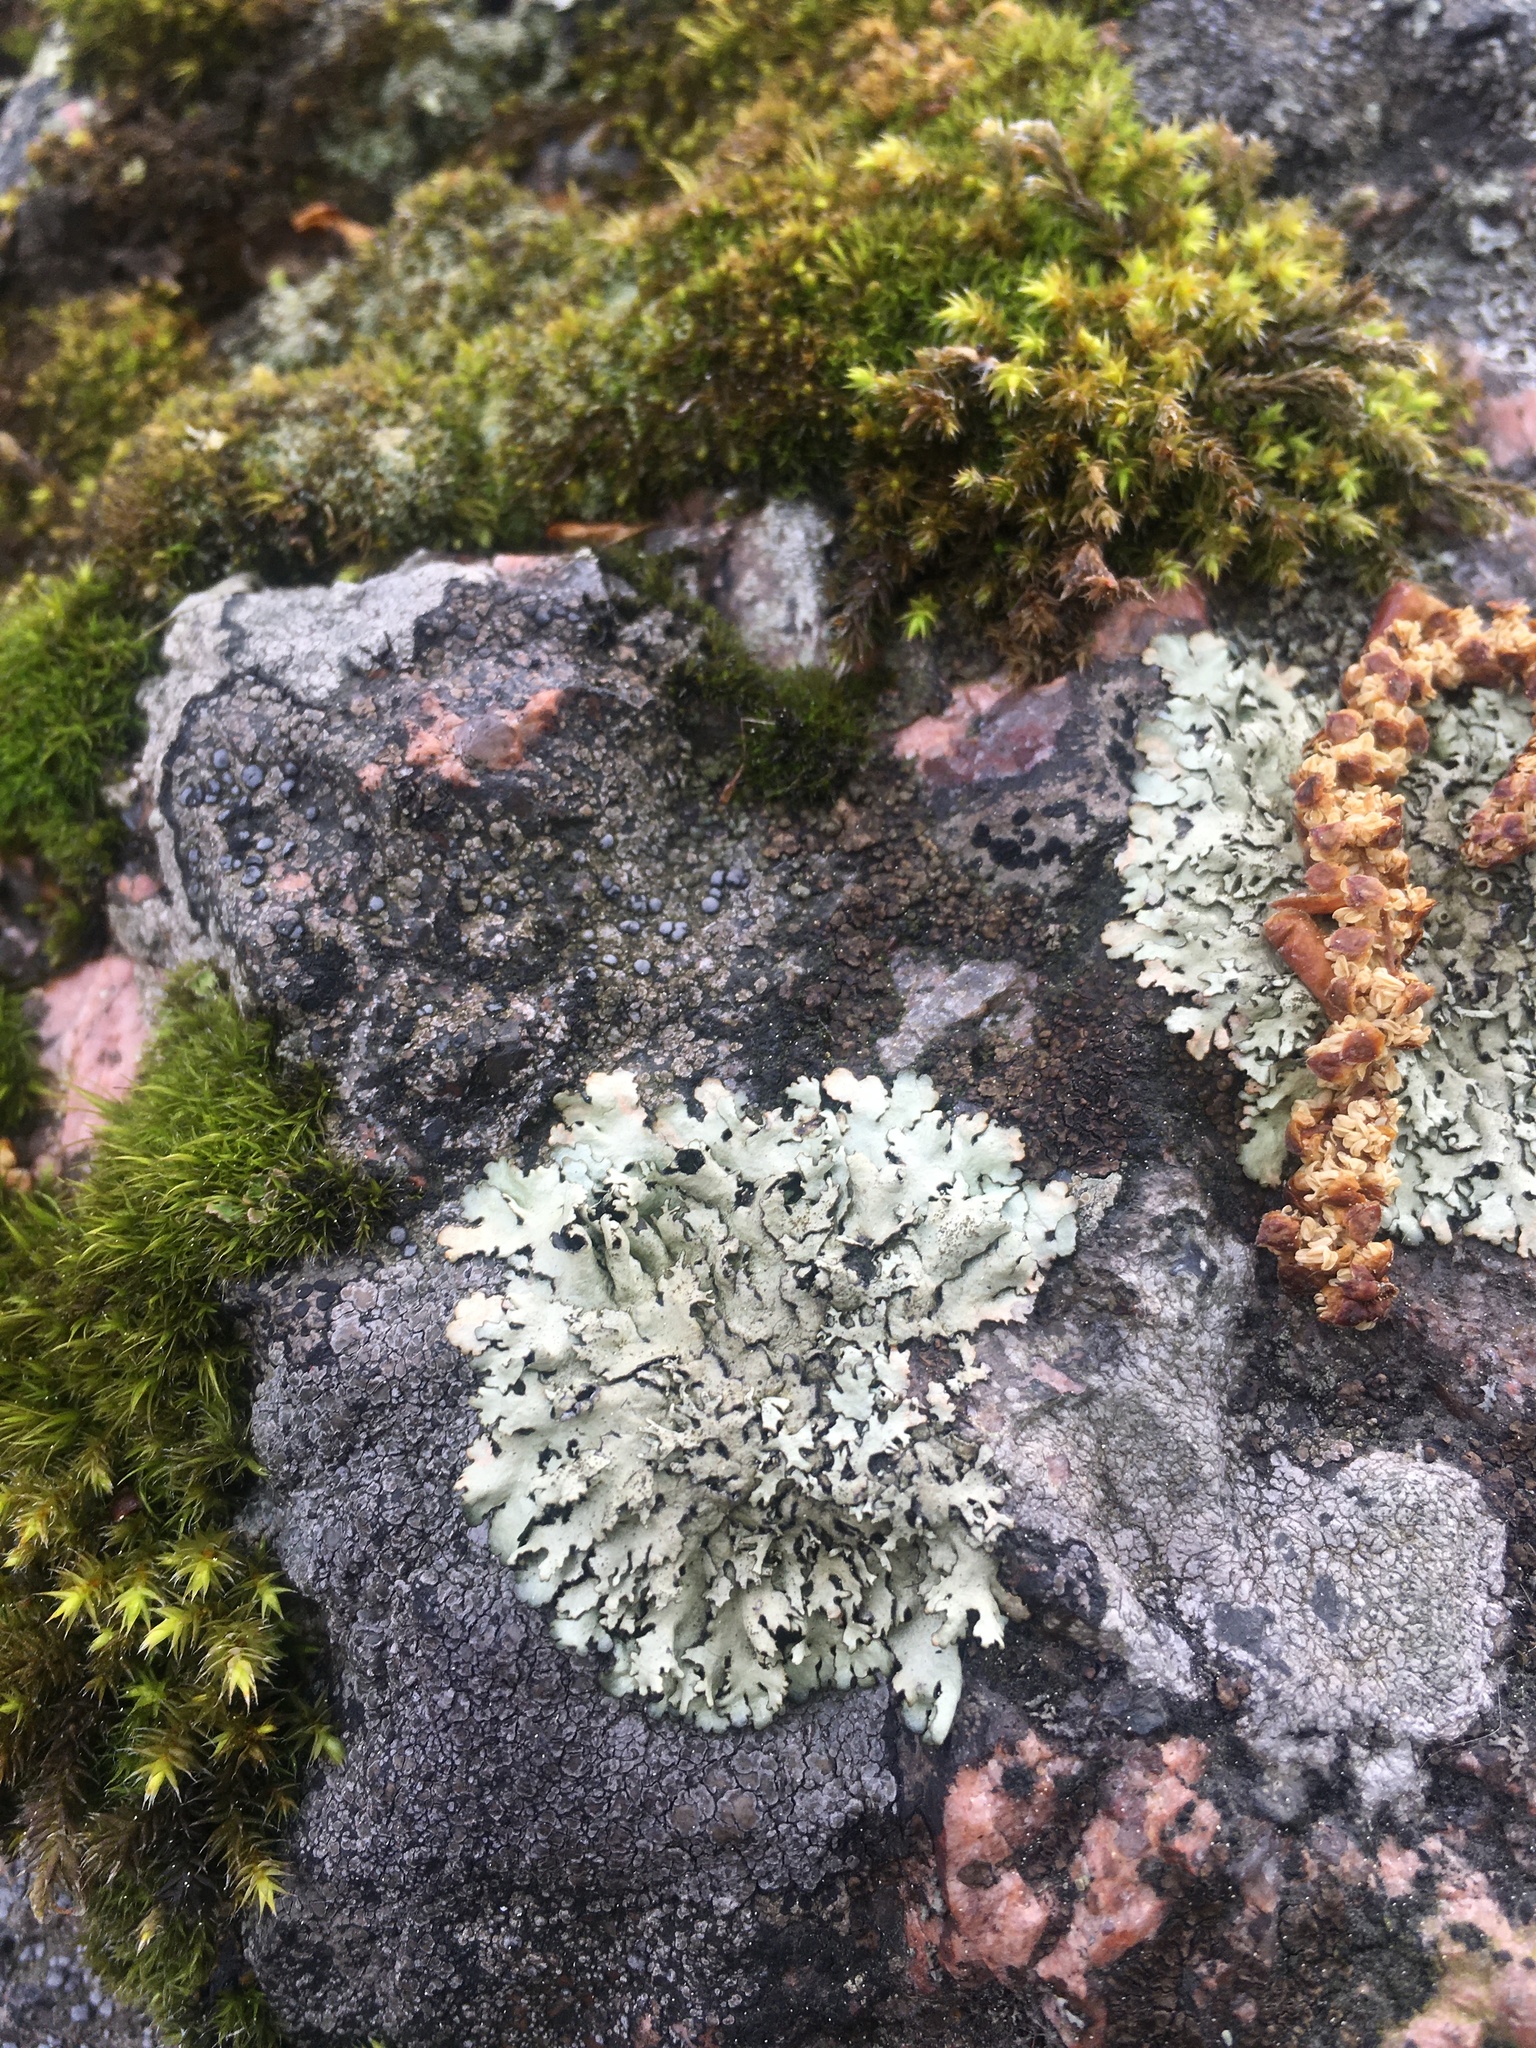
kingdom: Fungi
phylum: Ascomycota
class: Lecanoromycetes
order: Lecanorales
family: Parmeliaceae
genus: Xanthoparmelia
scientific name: Xanthoparmelia stenophylla
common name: Shingled rock shield
